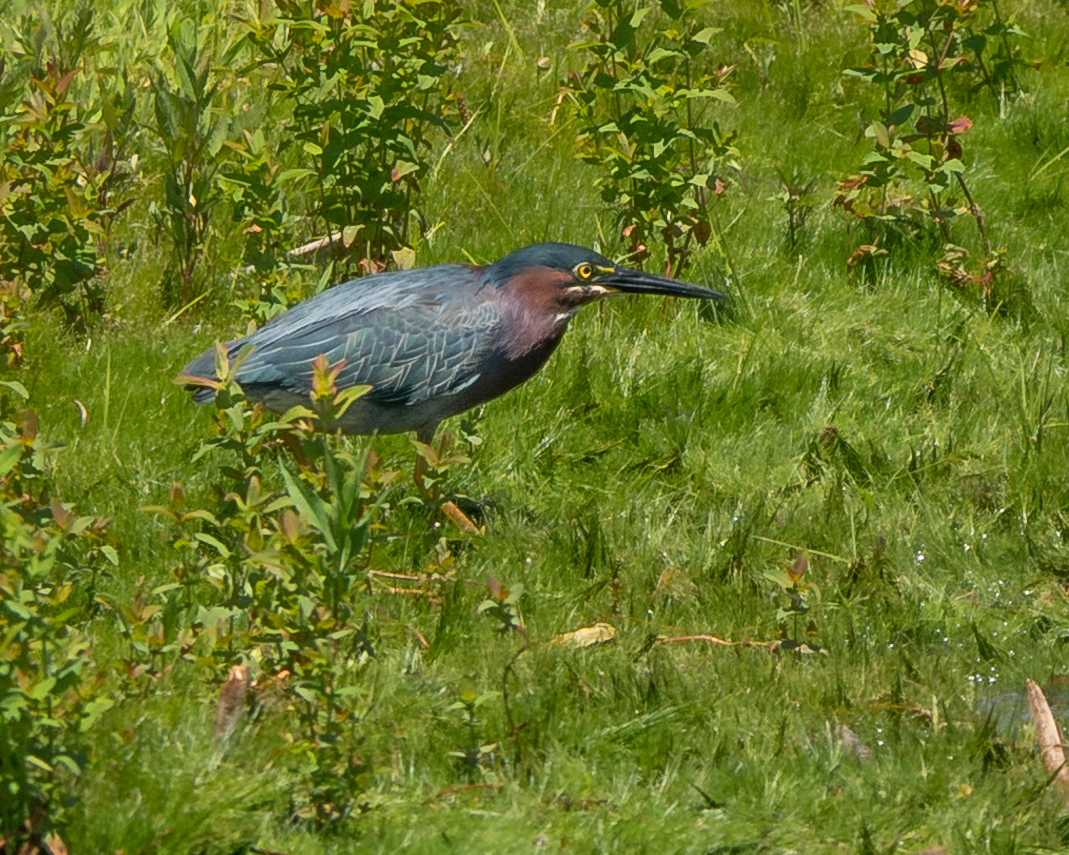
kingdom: Animalia
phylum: Chordata
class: Aves
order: Pelecaniformes
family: Ardeidae
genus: Butorides
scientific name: Butorides virescens
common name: Green heron
